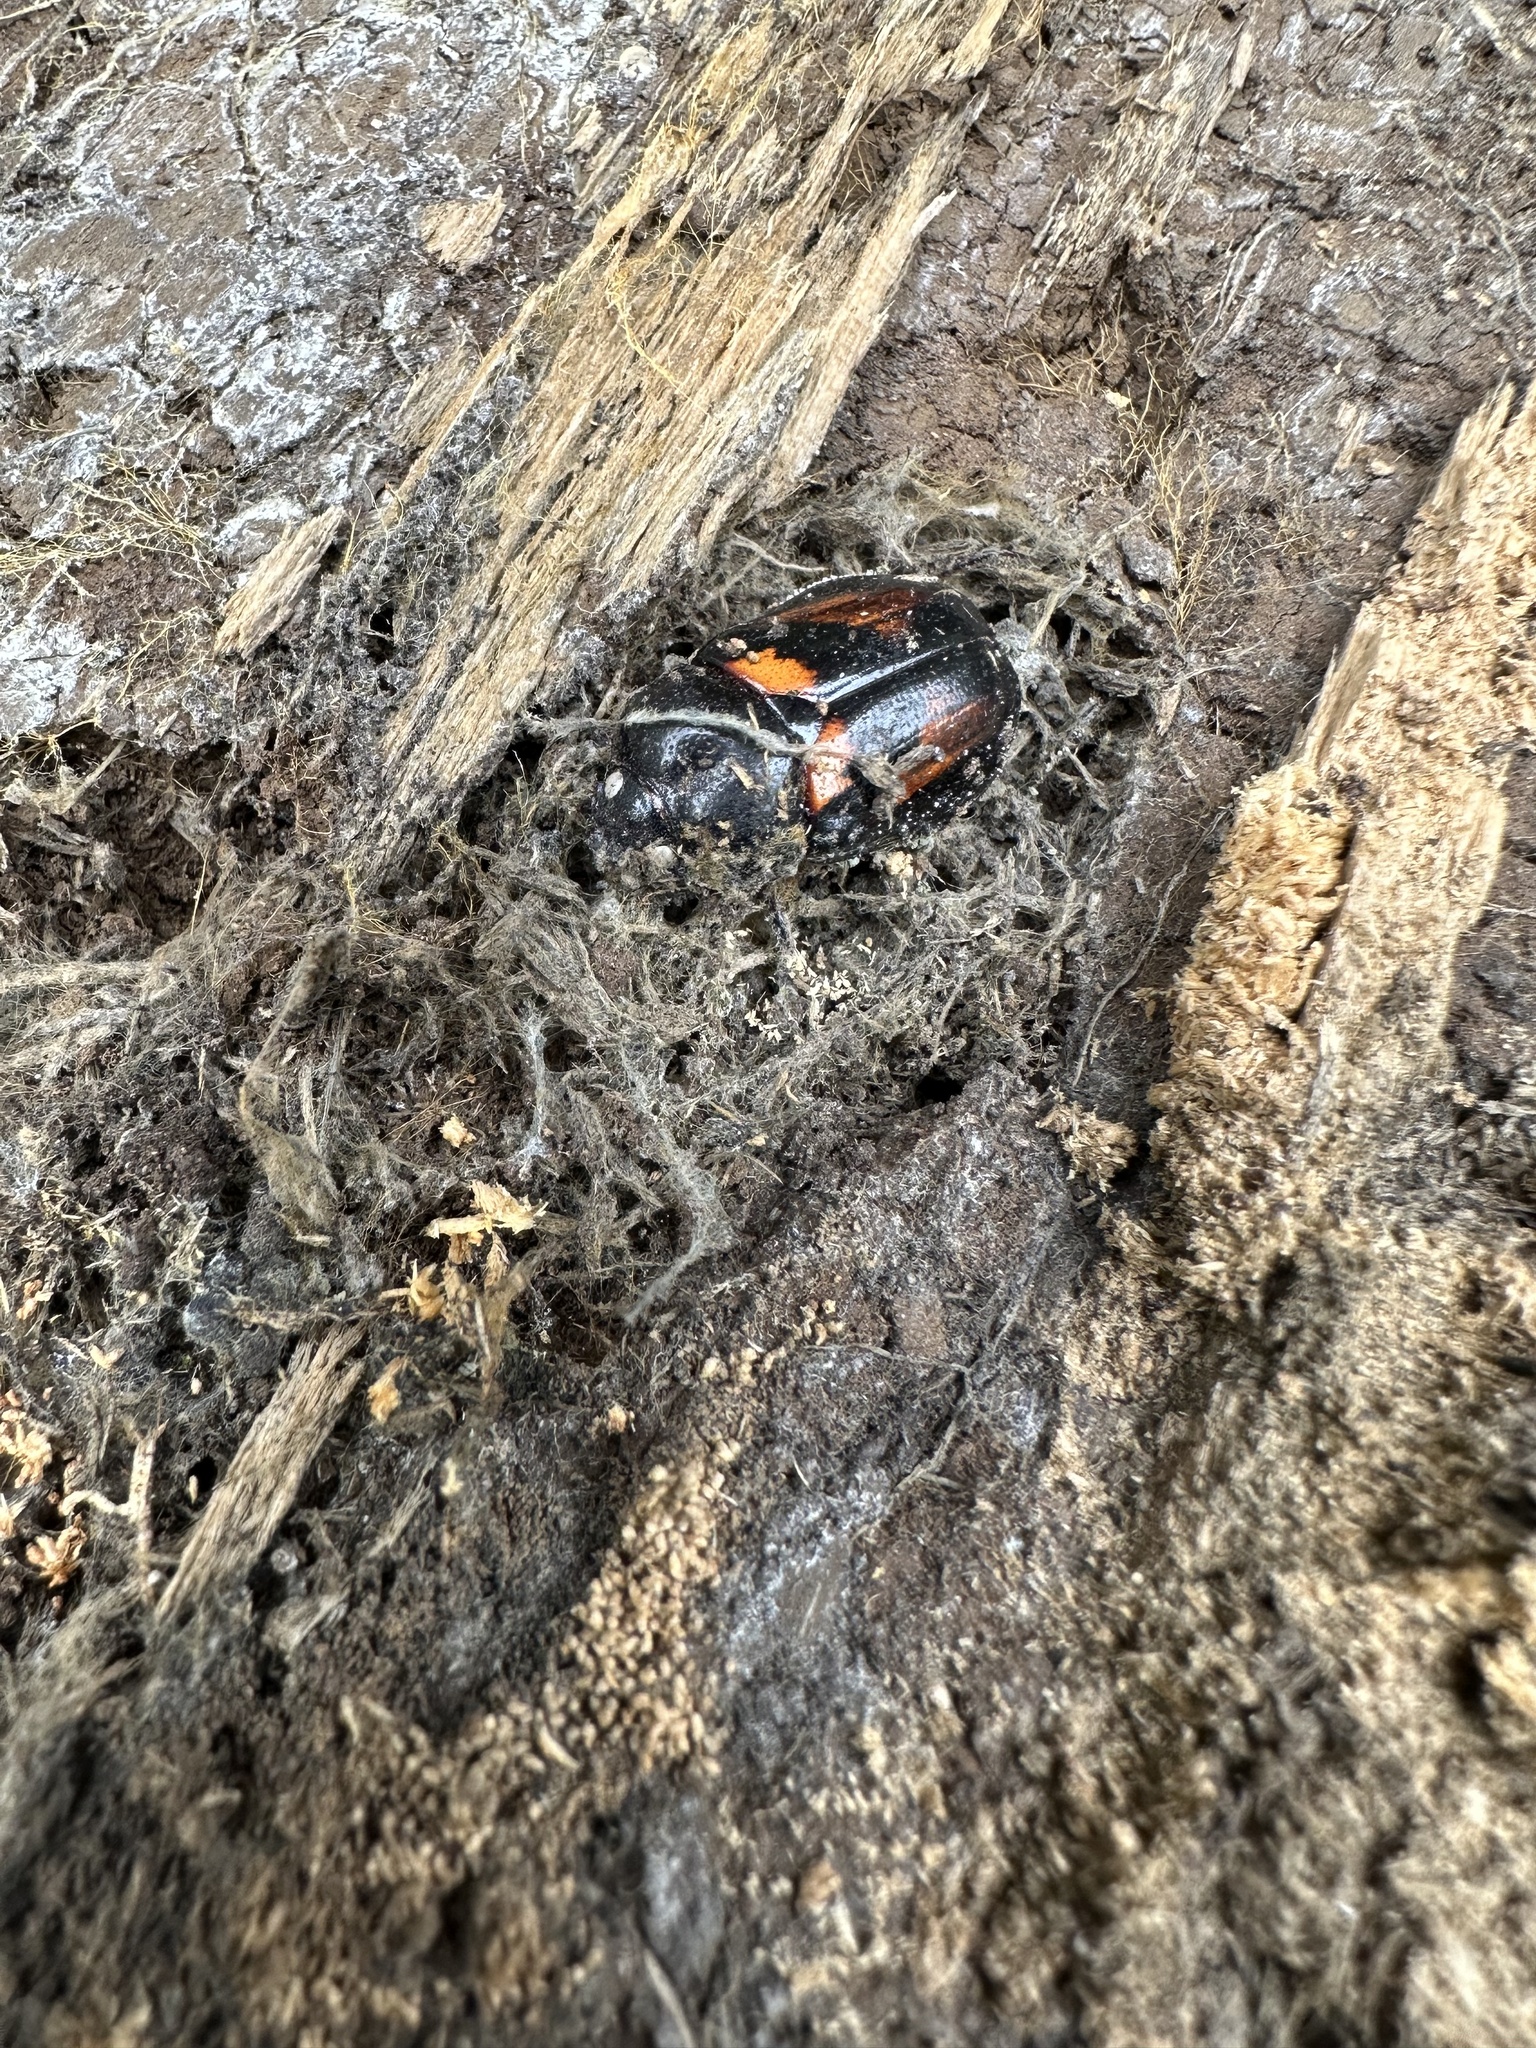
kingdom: Animalia
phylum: Arthropoda
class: Insecta
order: Coleoptera
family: Scarabaeidae
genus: Oryctomorphus
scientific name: Oryctomorphus bimaculatus
